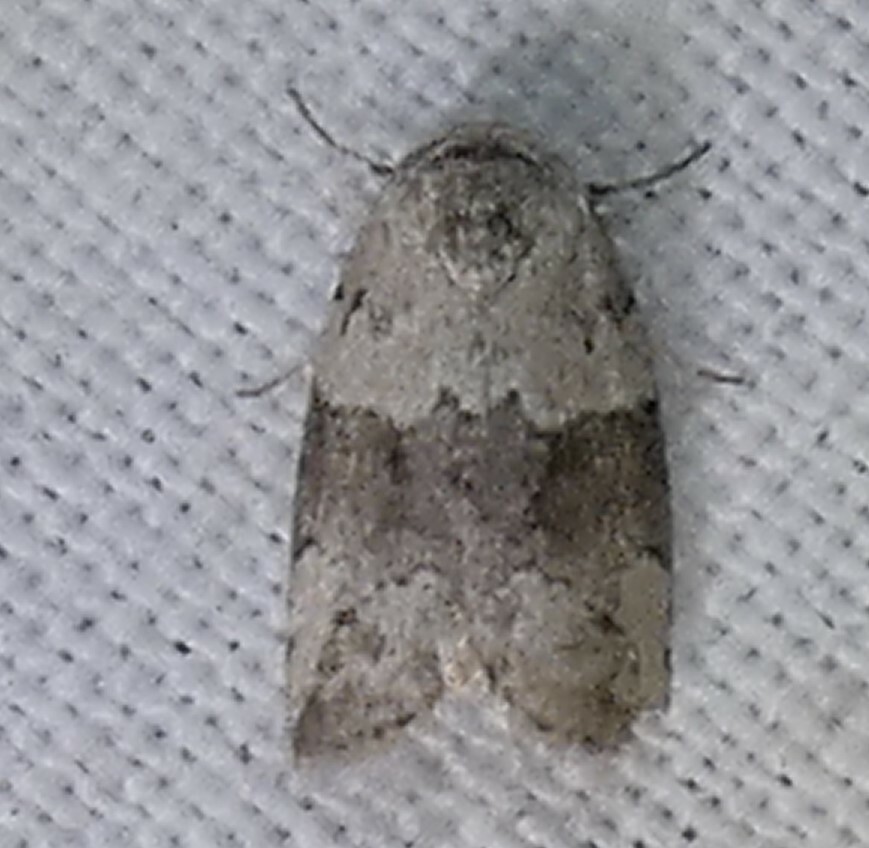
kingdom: Animalia
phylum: Arthropoda
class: Insecta
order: Lepidoptera
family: Nolidae
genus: Afrida
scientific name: Afrida ydatodes
